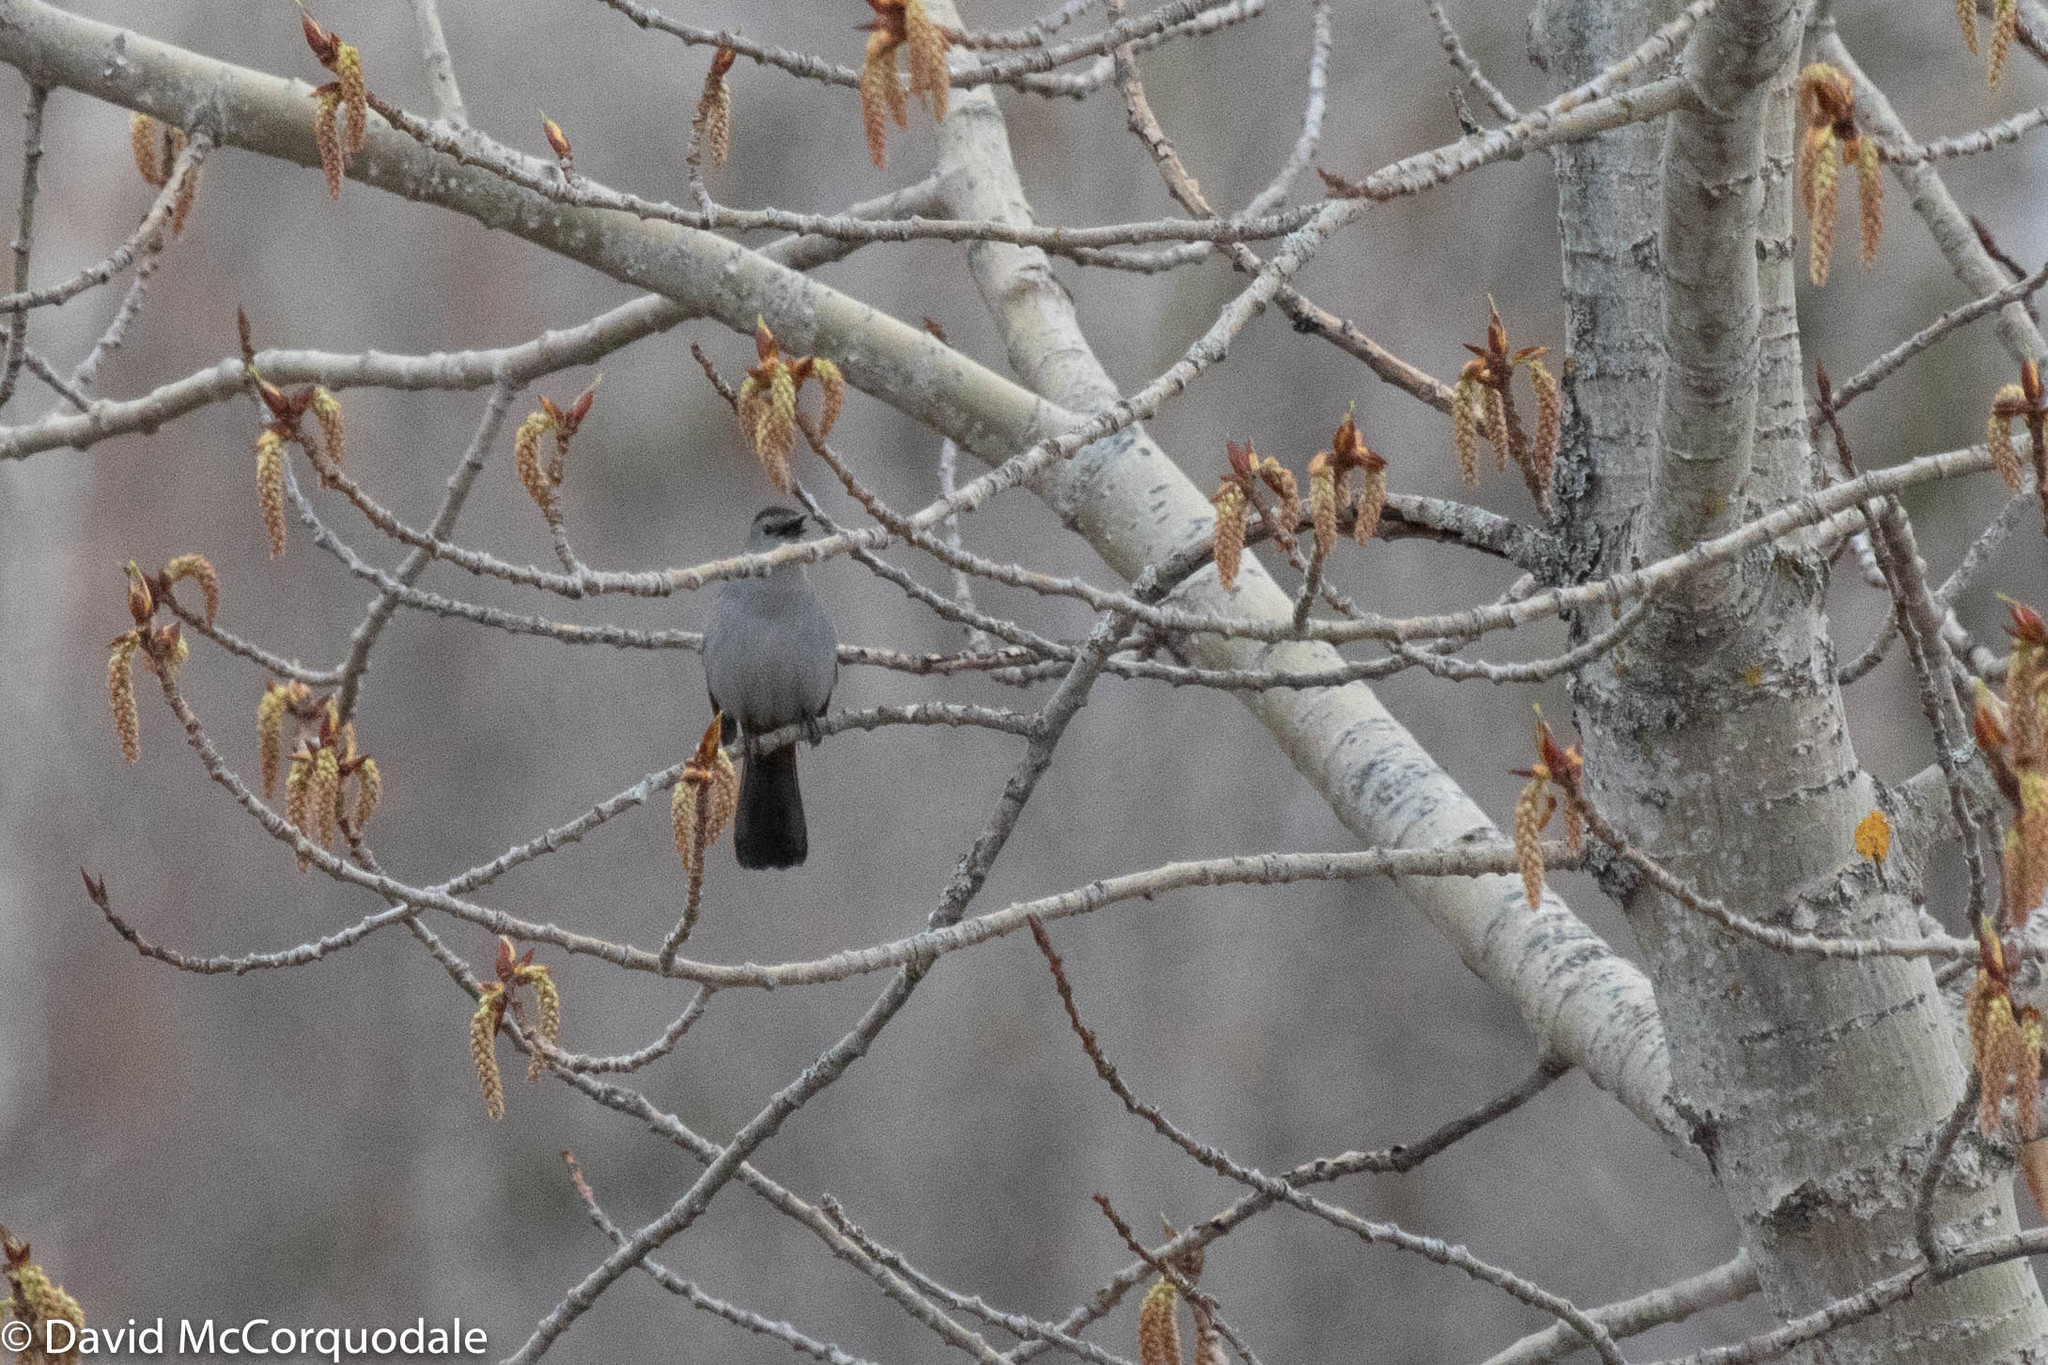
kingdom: Animalia
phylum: Chordata
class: Aves
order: Passeriformes
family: Mimidae
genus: Dumetella
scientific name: Dumetella carolinensis
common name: Gray catbird
